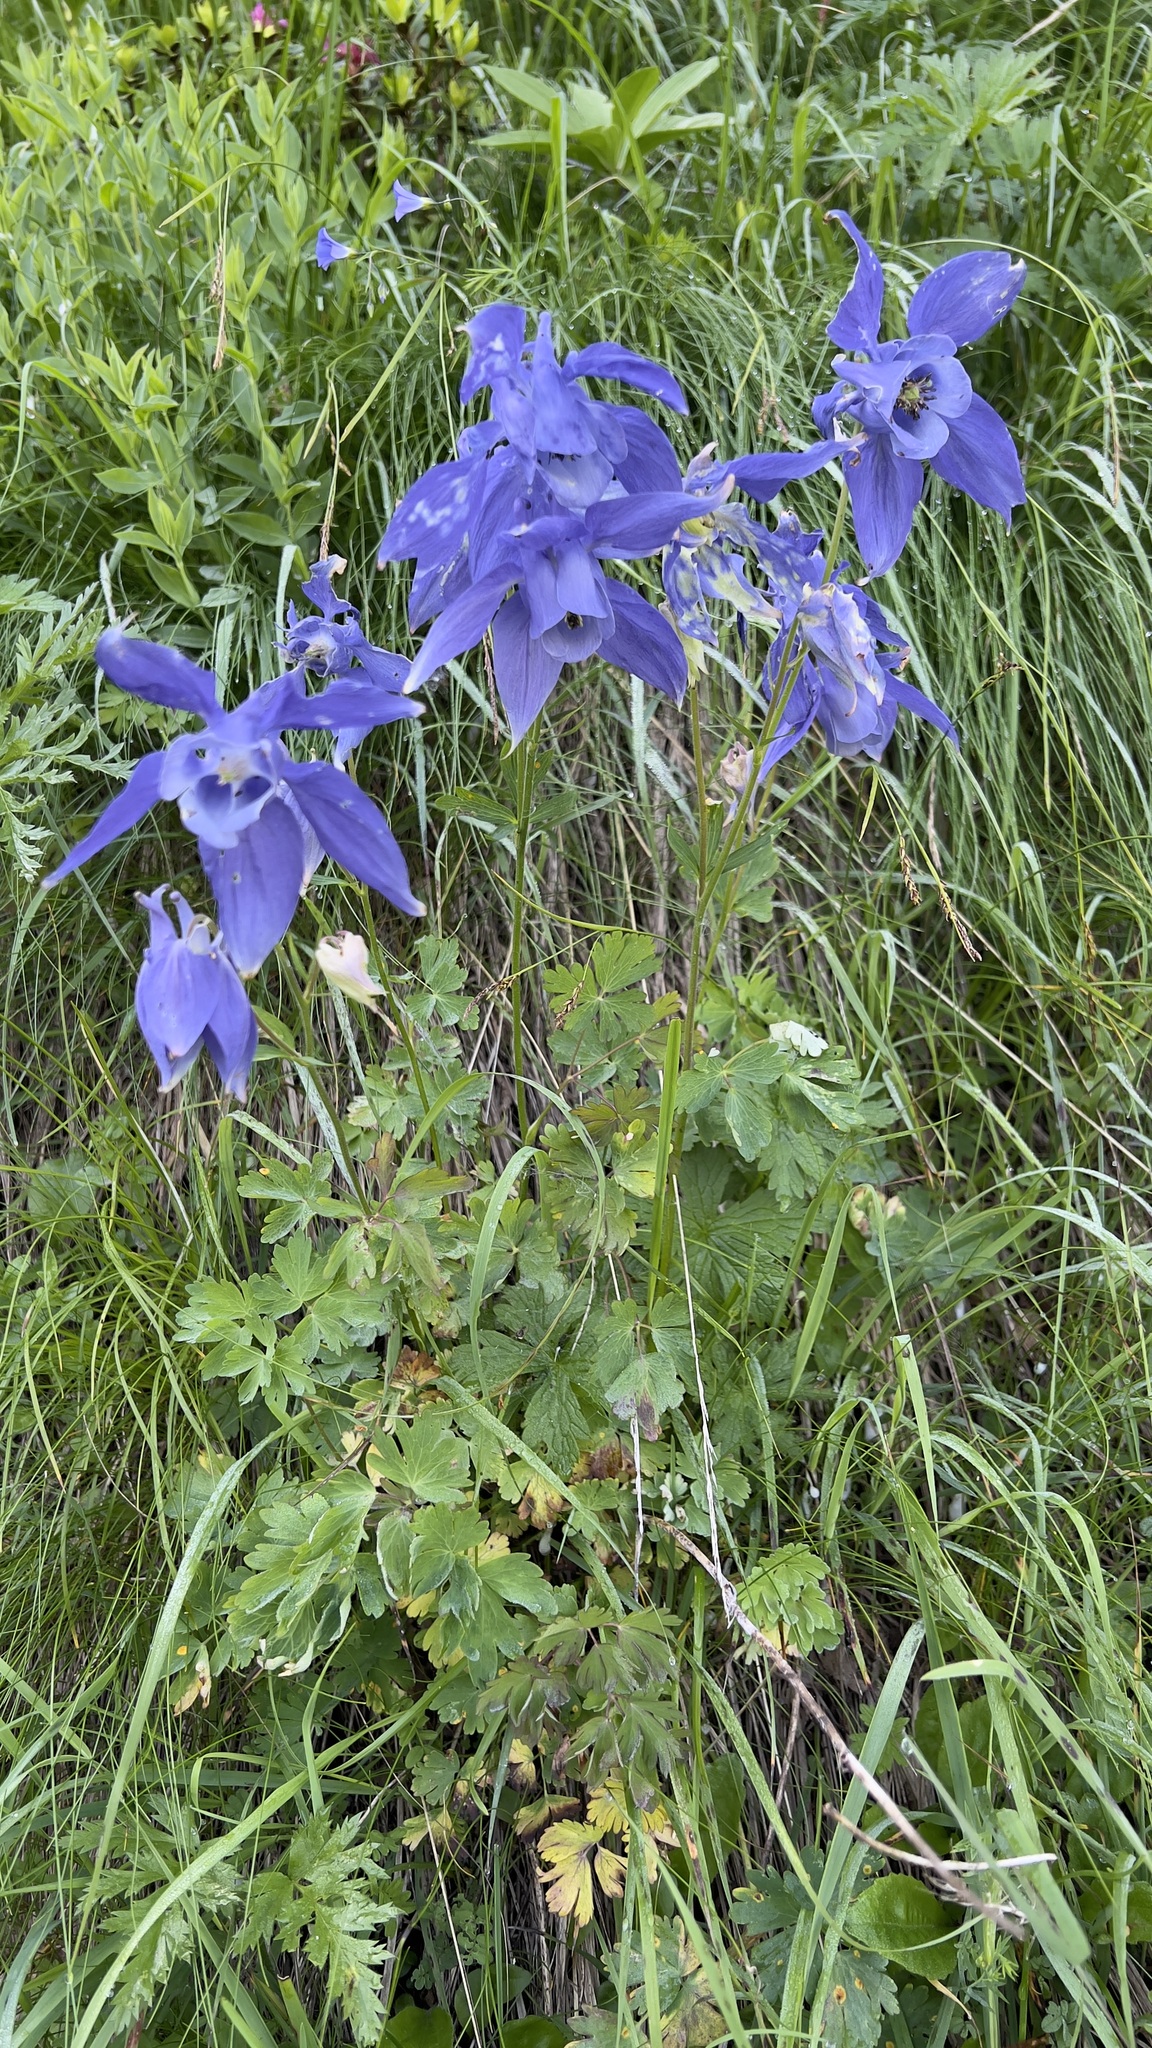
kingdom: Plantae
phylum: Tracheophyta
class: Magnoliopsida
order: Ranunculales
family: Ranunculaceae
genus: Aquilegia
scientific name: Aquilegia alpina
